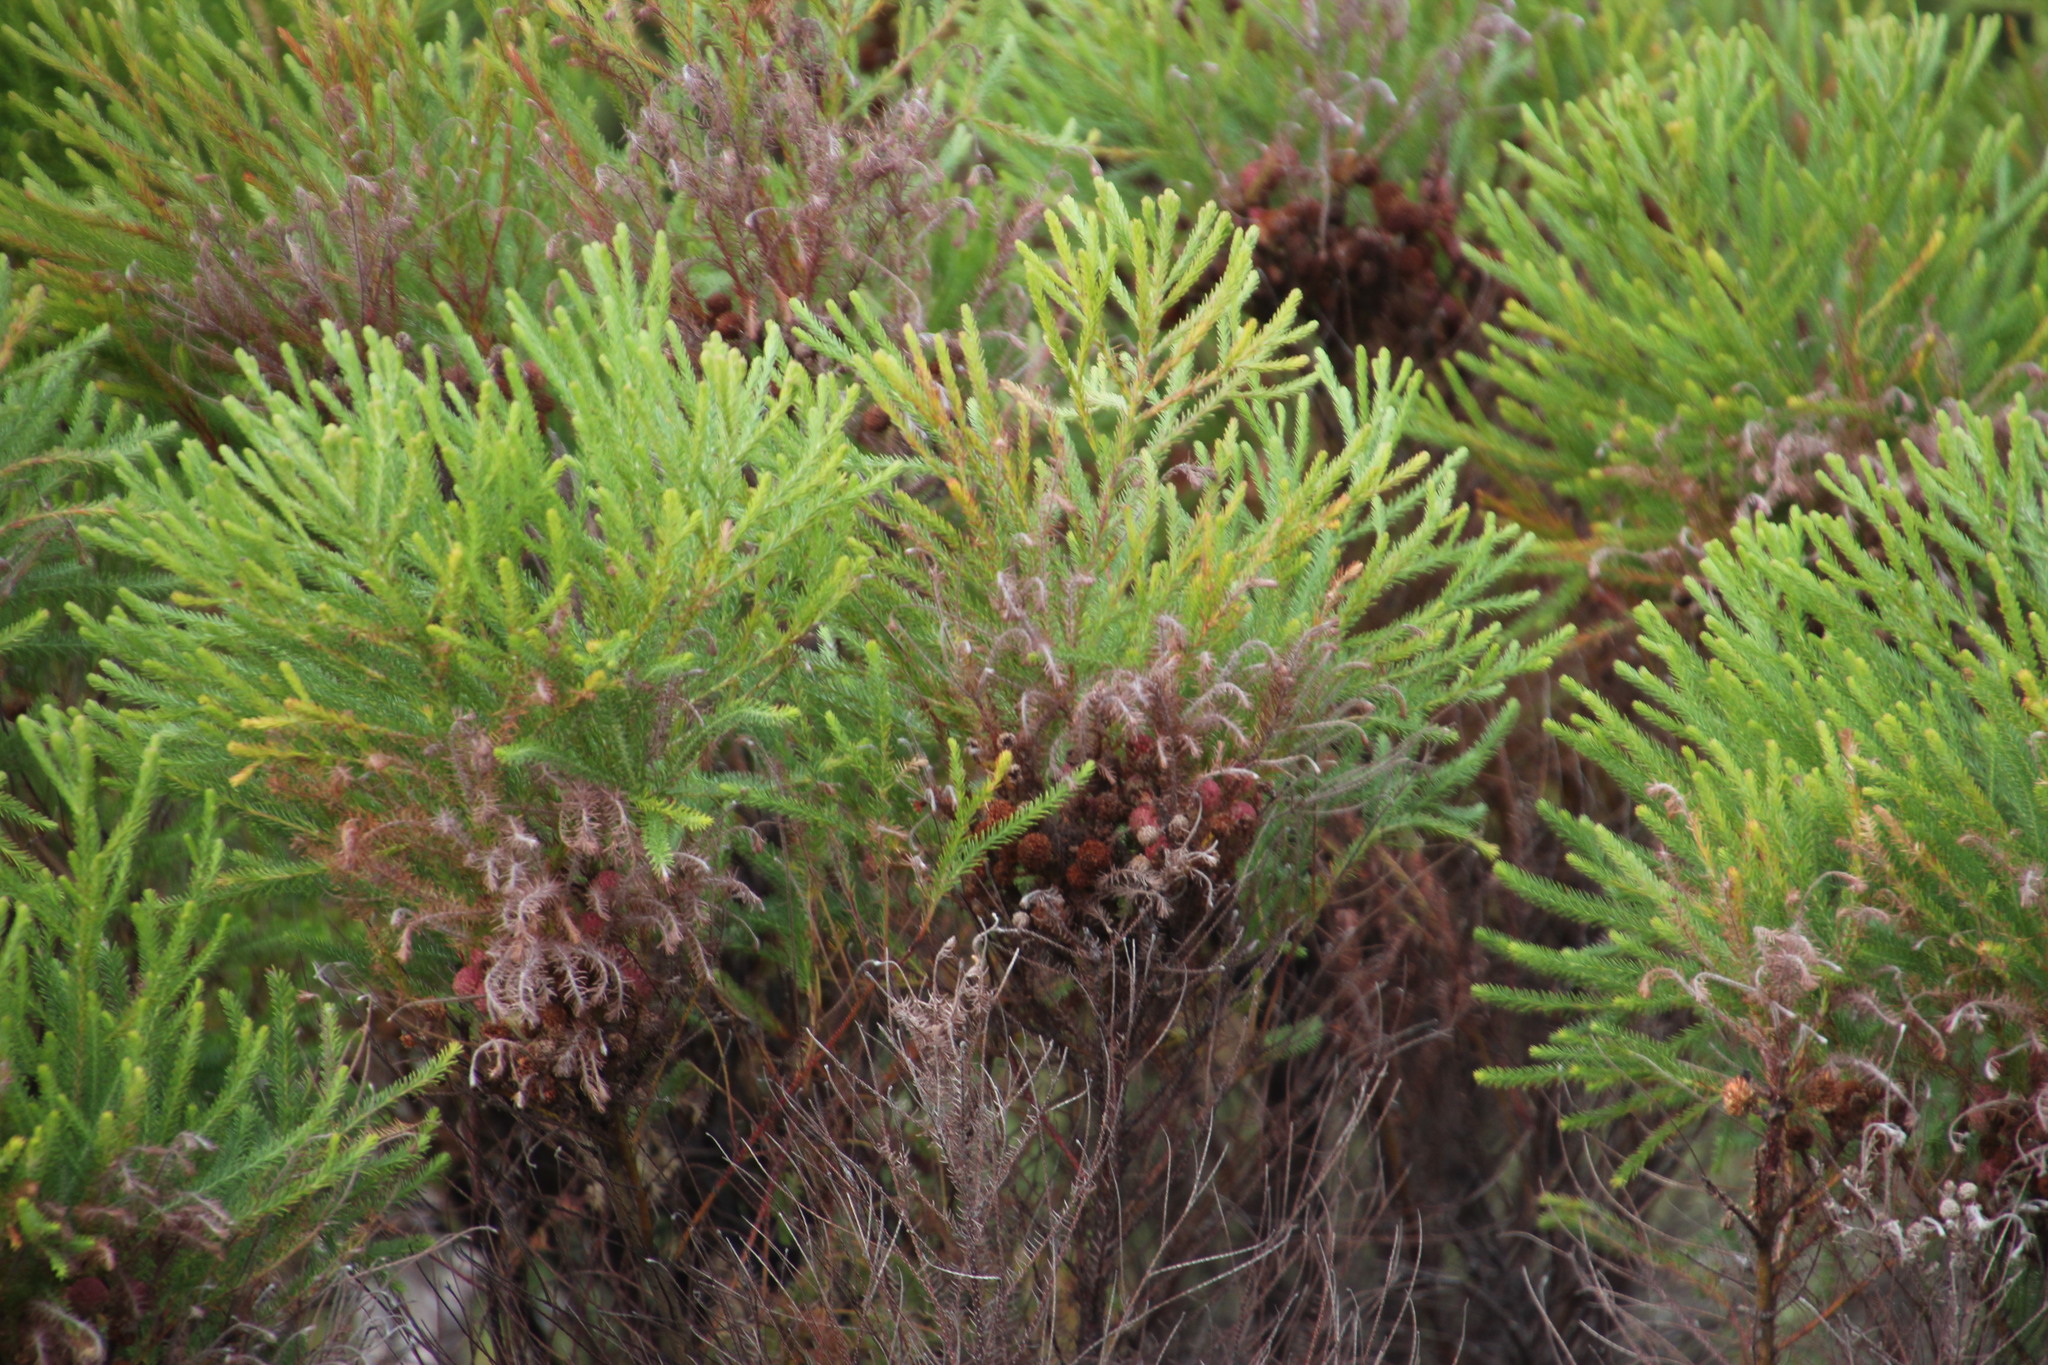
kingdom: Plantae
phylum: Tracheophyta
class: Magnoliopsida
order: Bruniales
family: Bruniaceae
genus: Berzelia
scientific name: Berzelia lanuginosa
